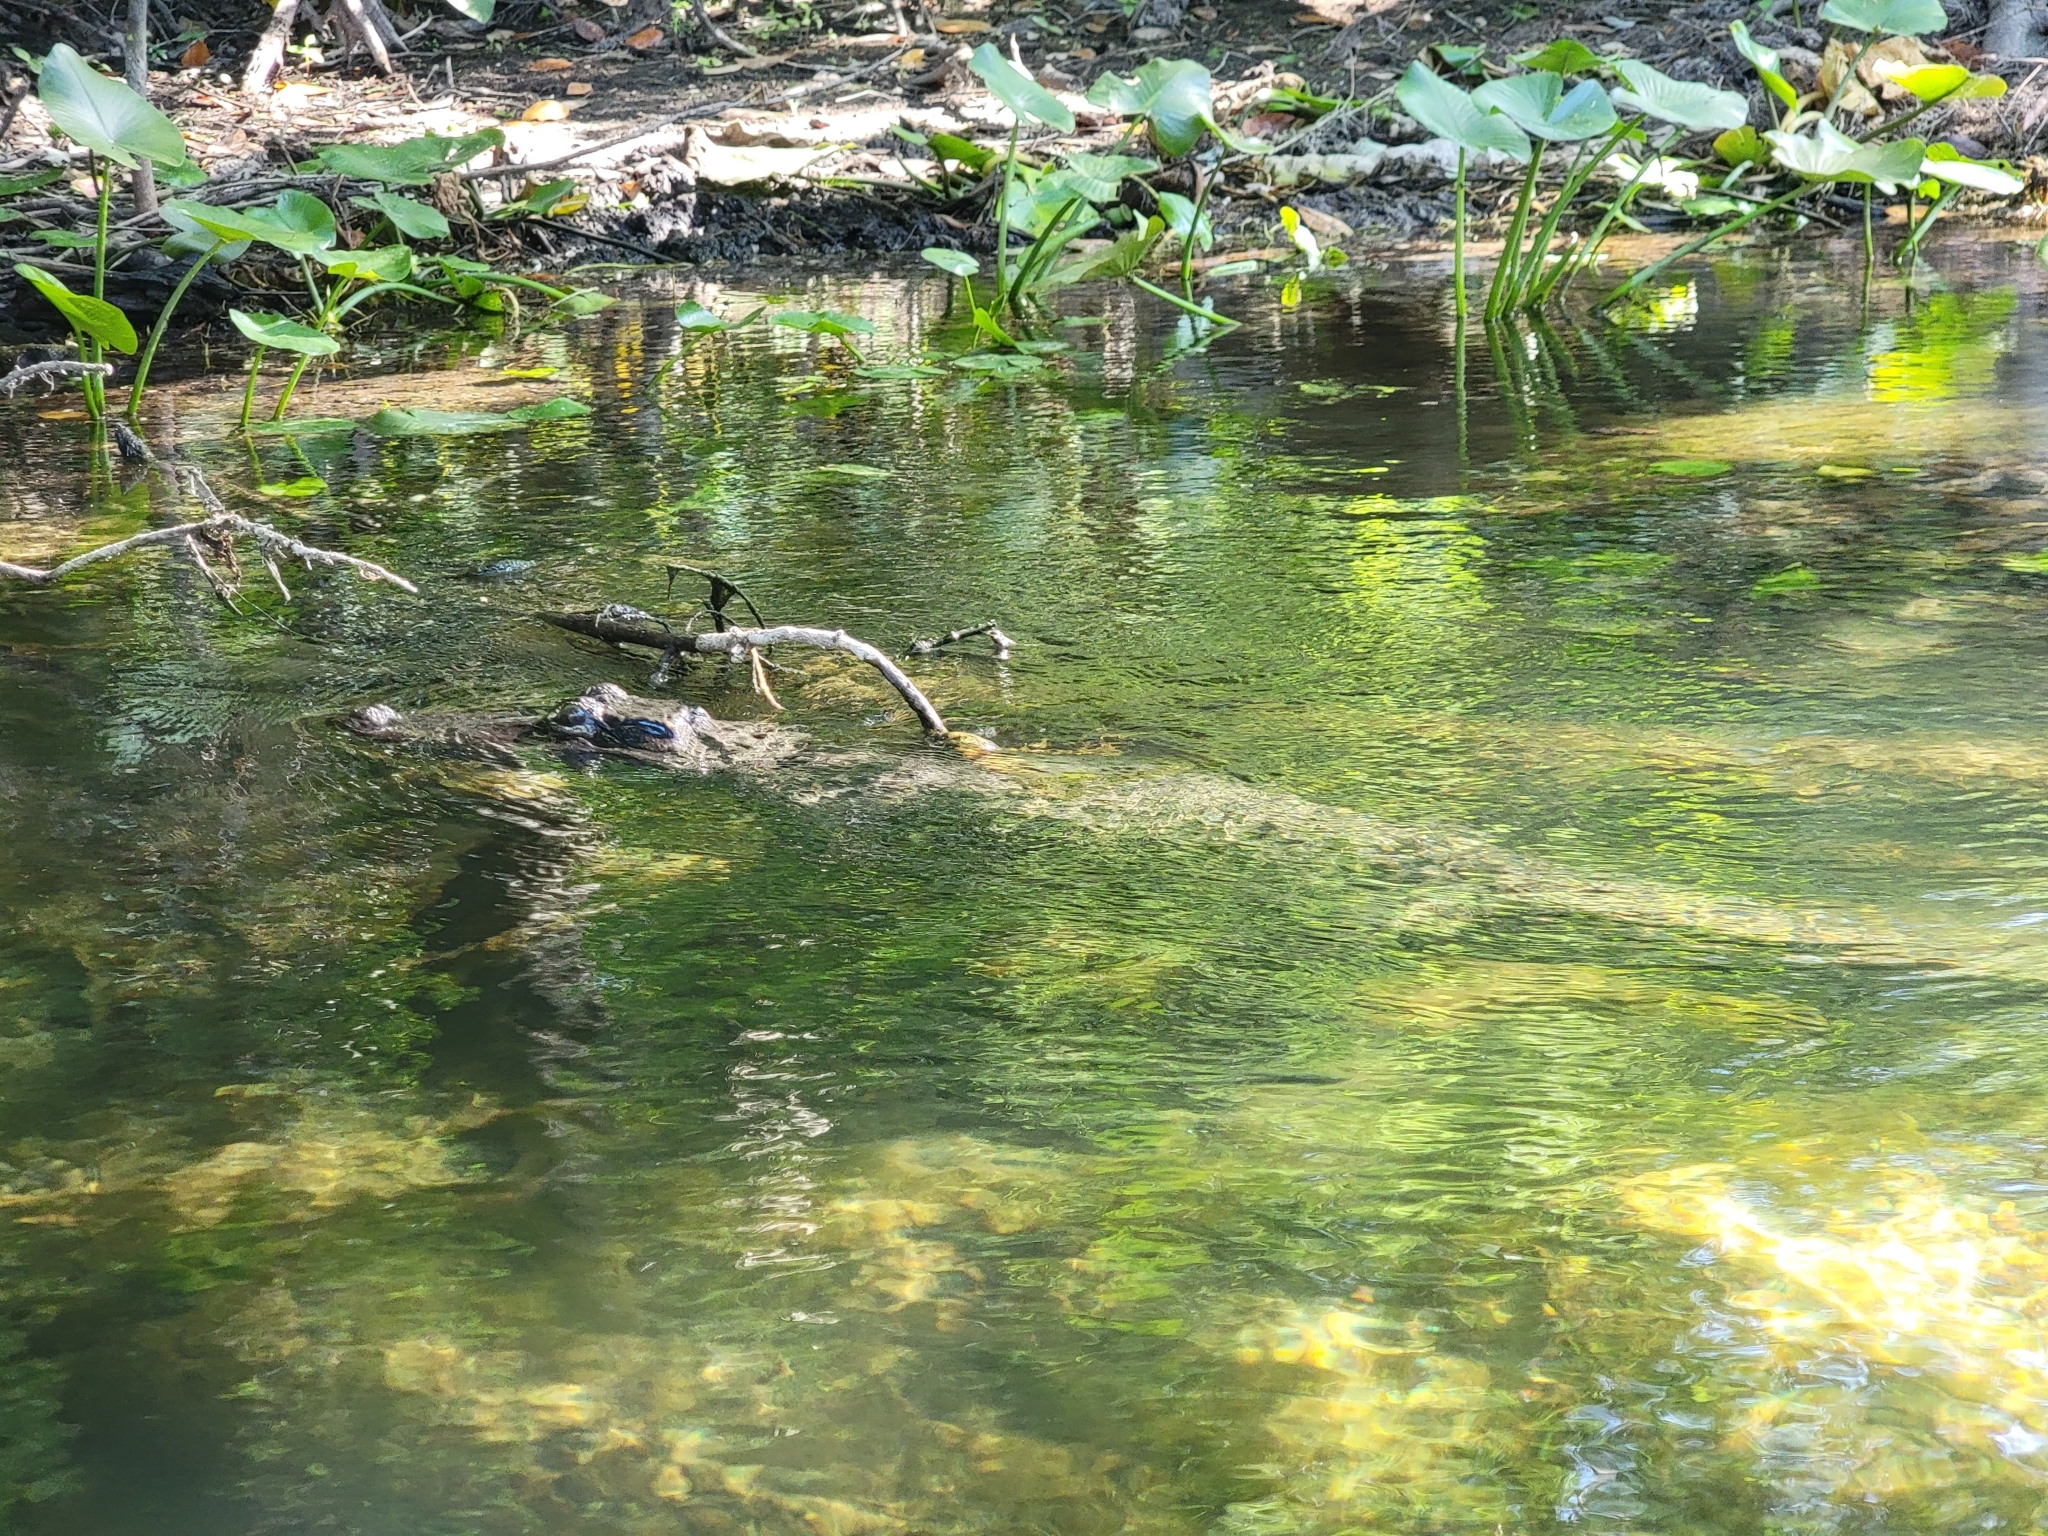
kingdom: Animalia
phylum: Chordata
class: Crocodylia
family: Alligatoridae
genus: Alligator
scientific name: Alligator mississippiensis
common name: American alligator
